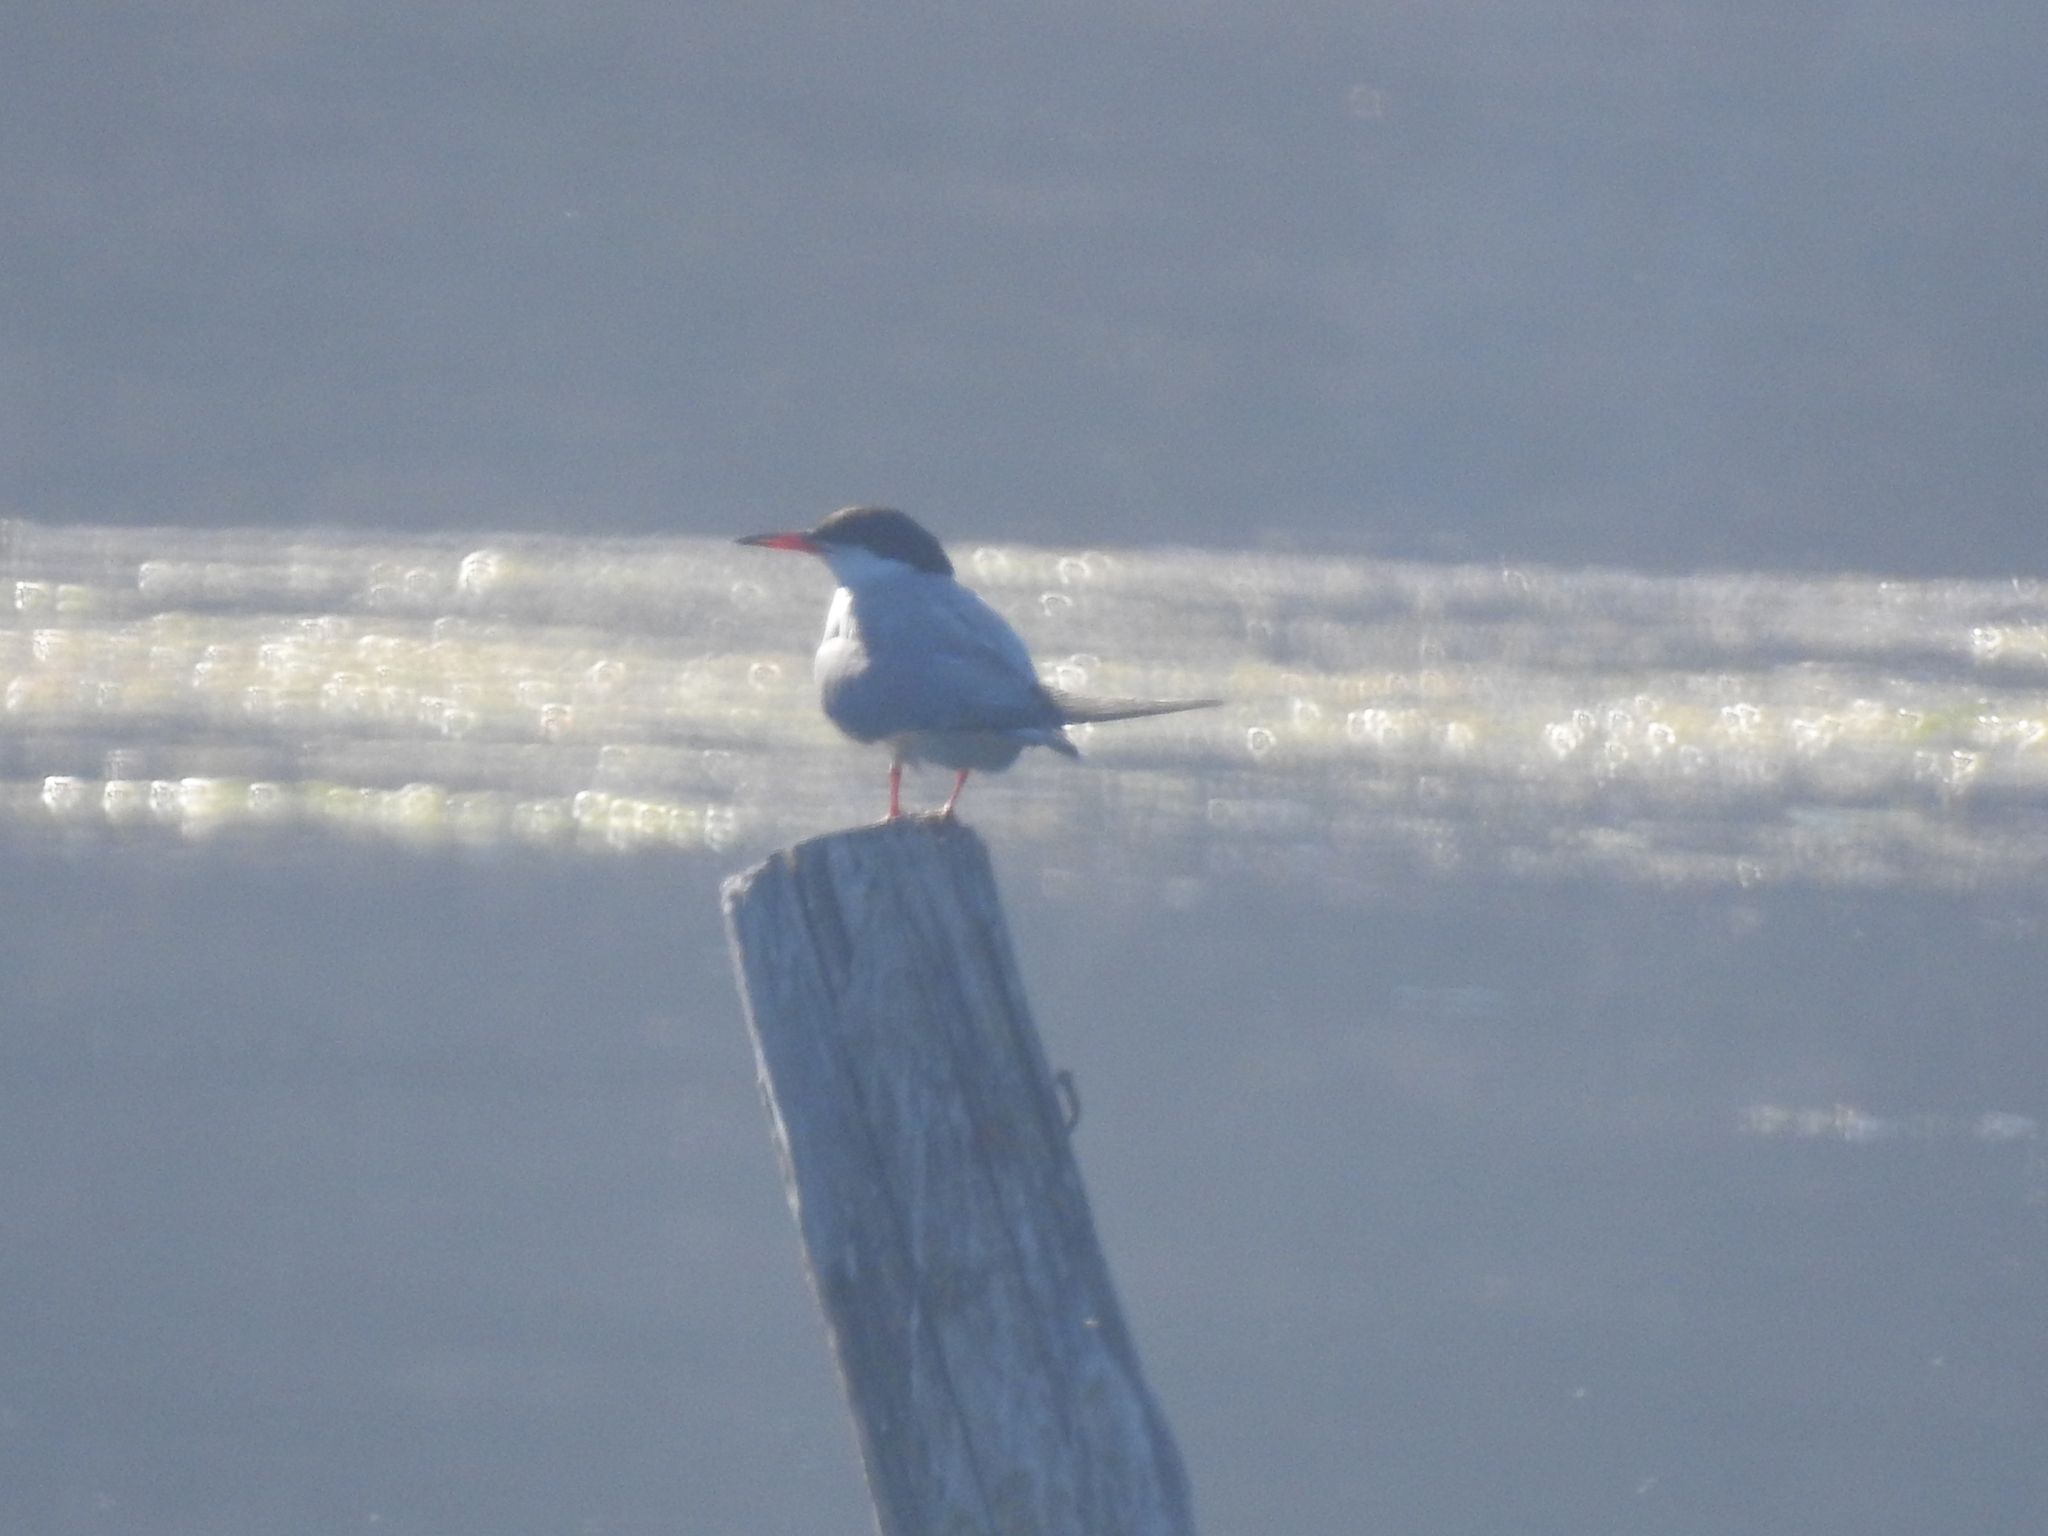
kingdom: Animalia
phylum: Chordata
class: Aves
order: Charadriiformes
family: Laridae
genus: Sterna
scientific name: Sterna hirundo
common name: Common tern
